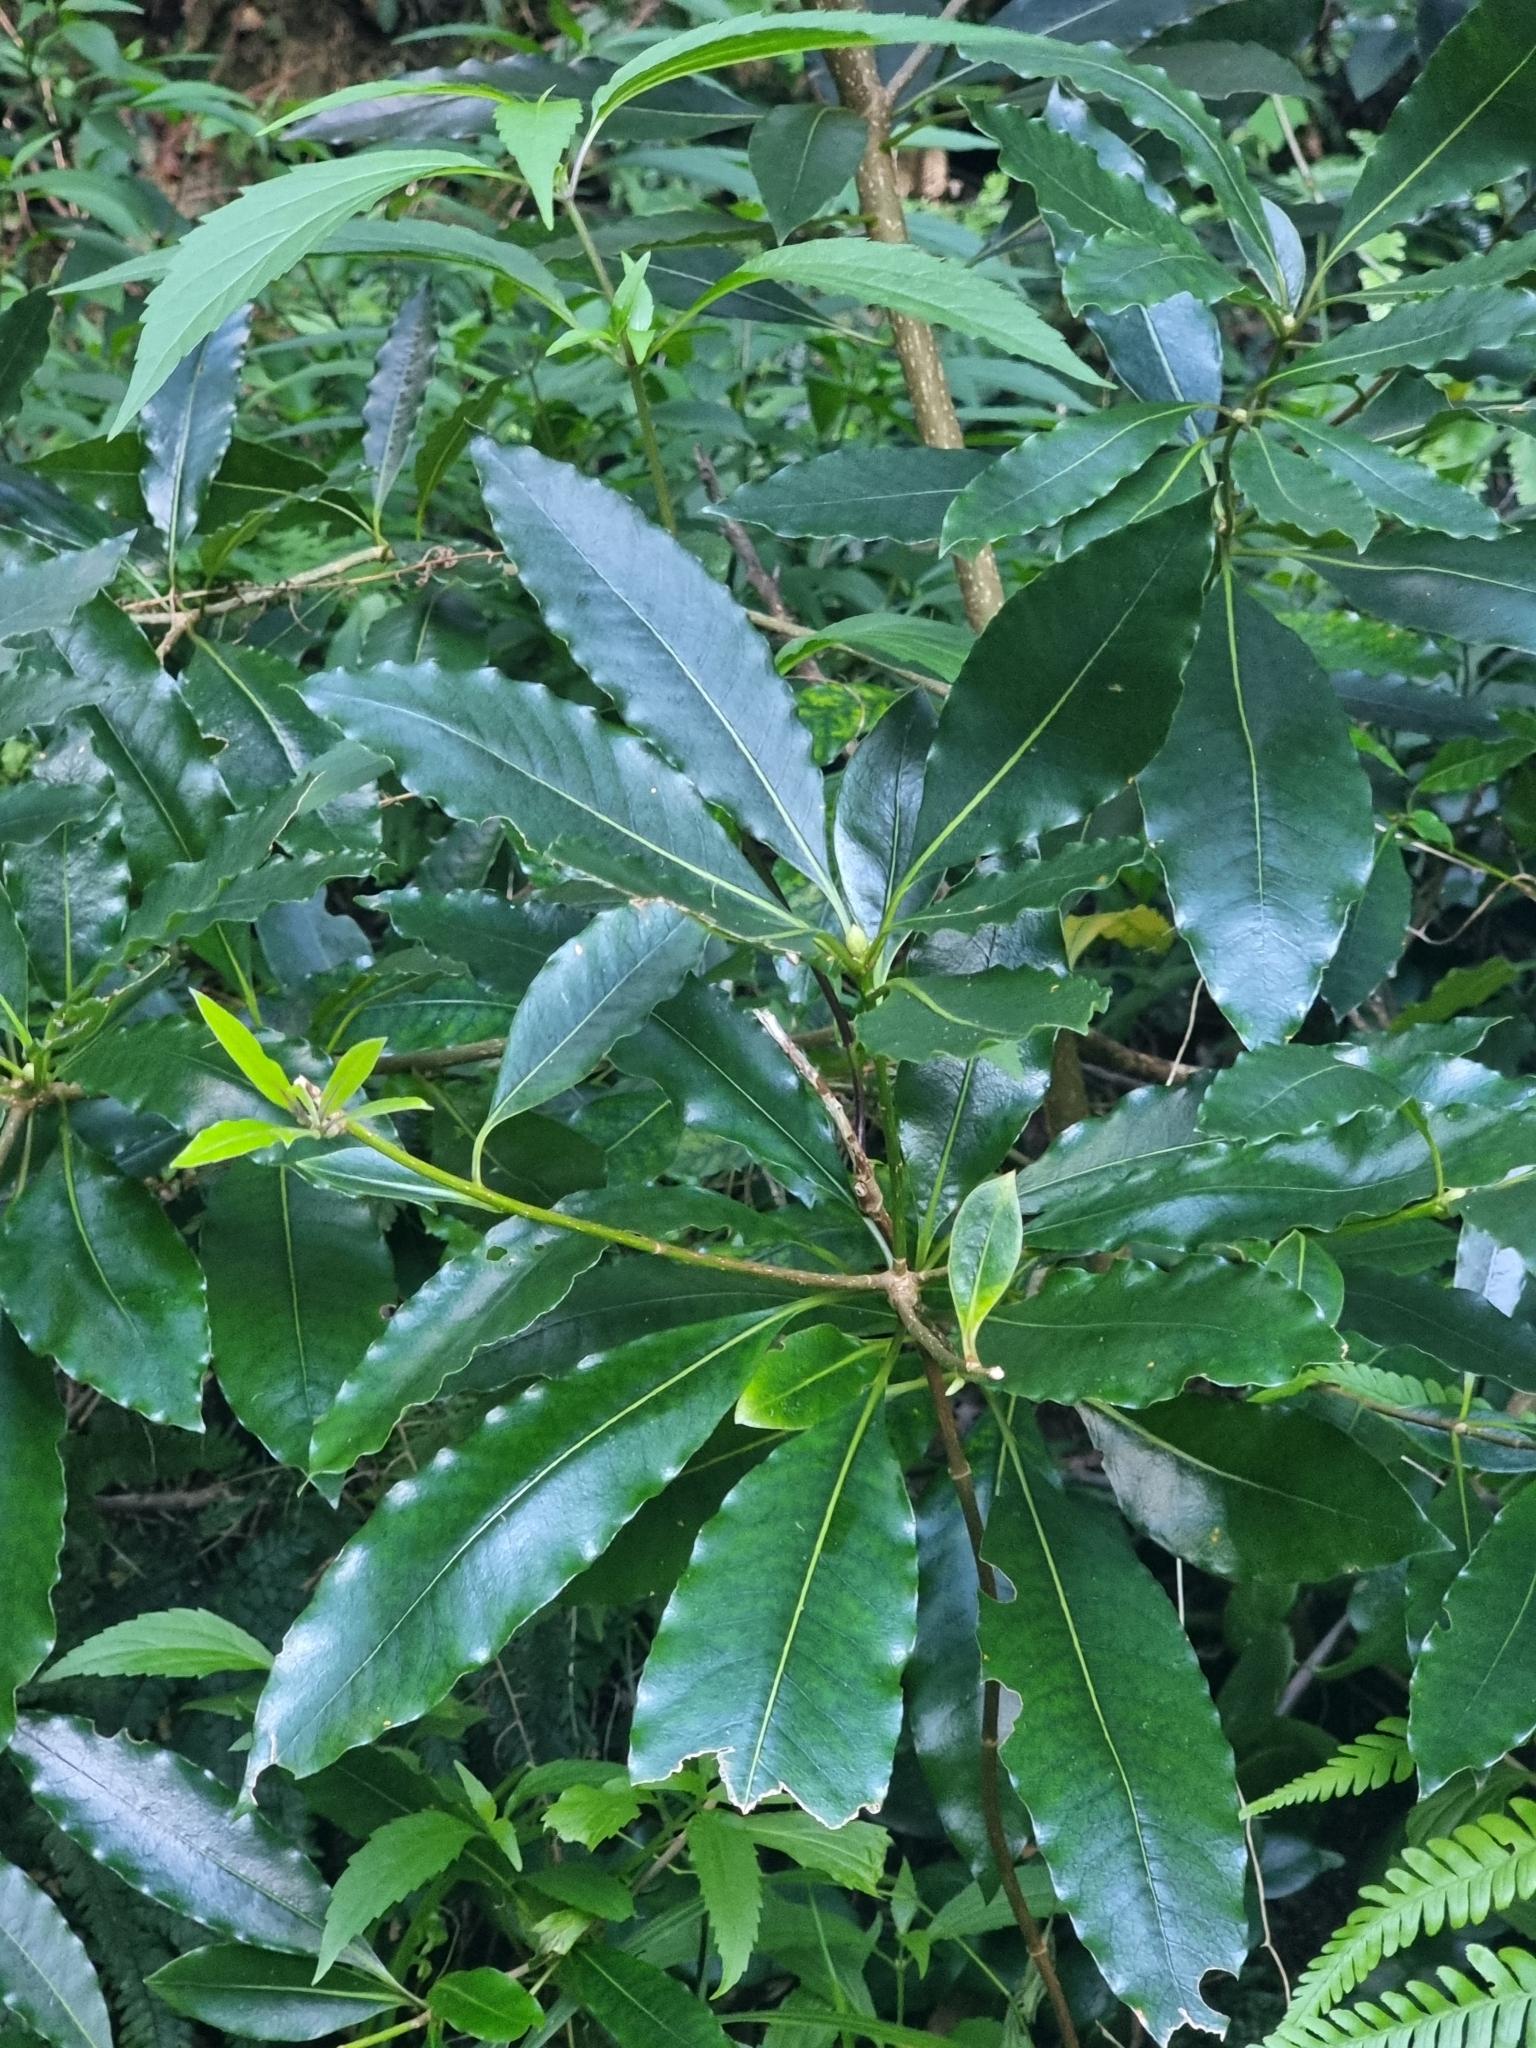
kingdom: Plantae
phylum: Tracheophyta
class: Magnoliopsida
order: Apiales
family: Pittosporaceae
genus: Pittosporum
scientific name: Pittosporum undulatum
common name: Australian cheesewood
